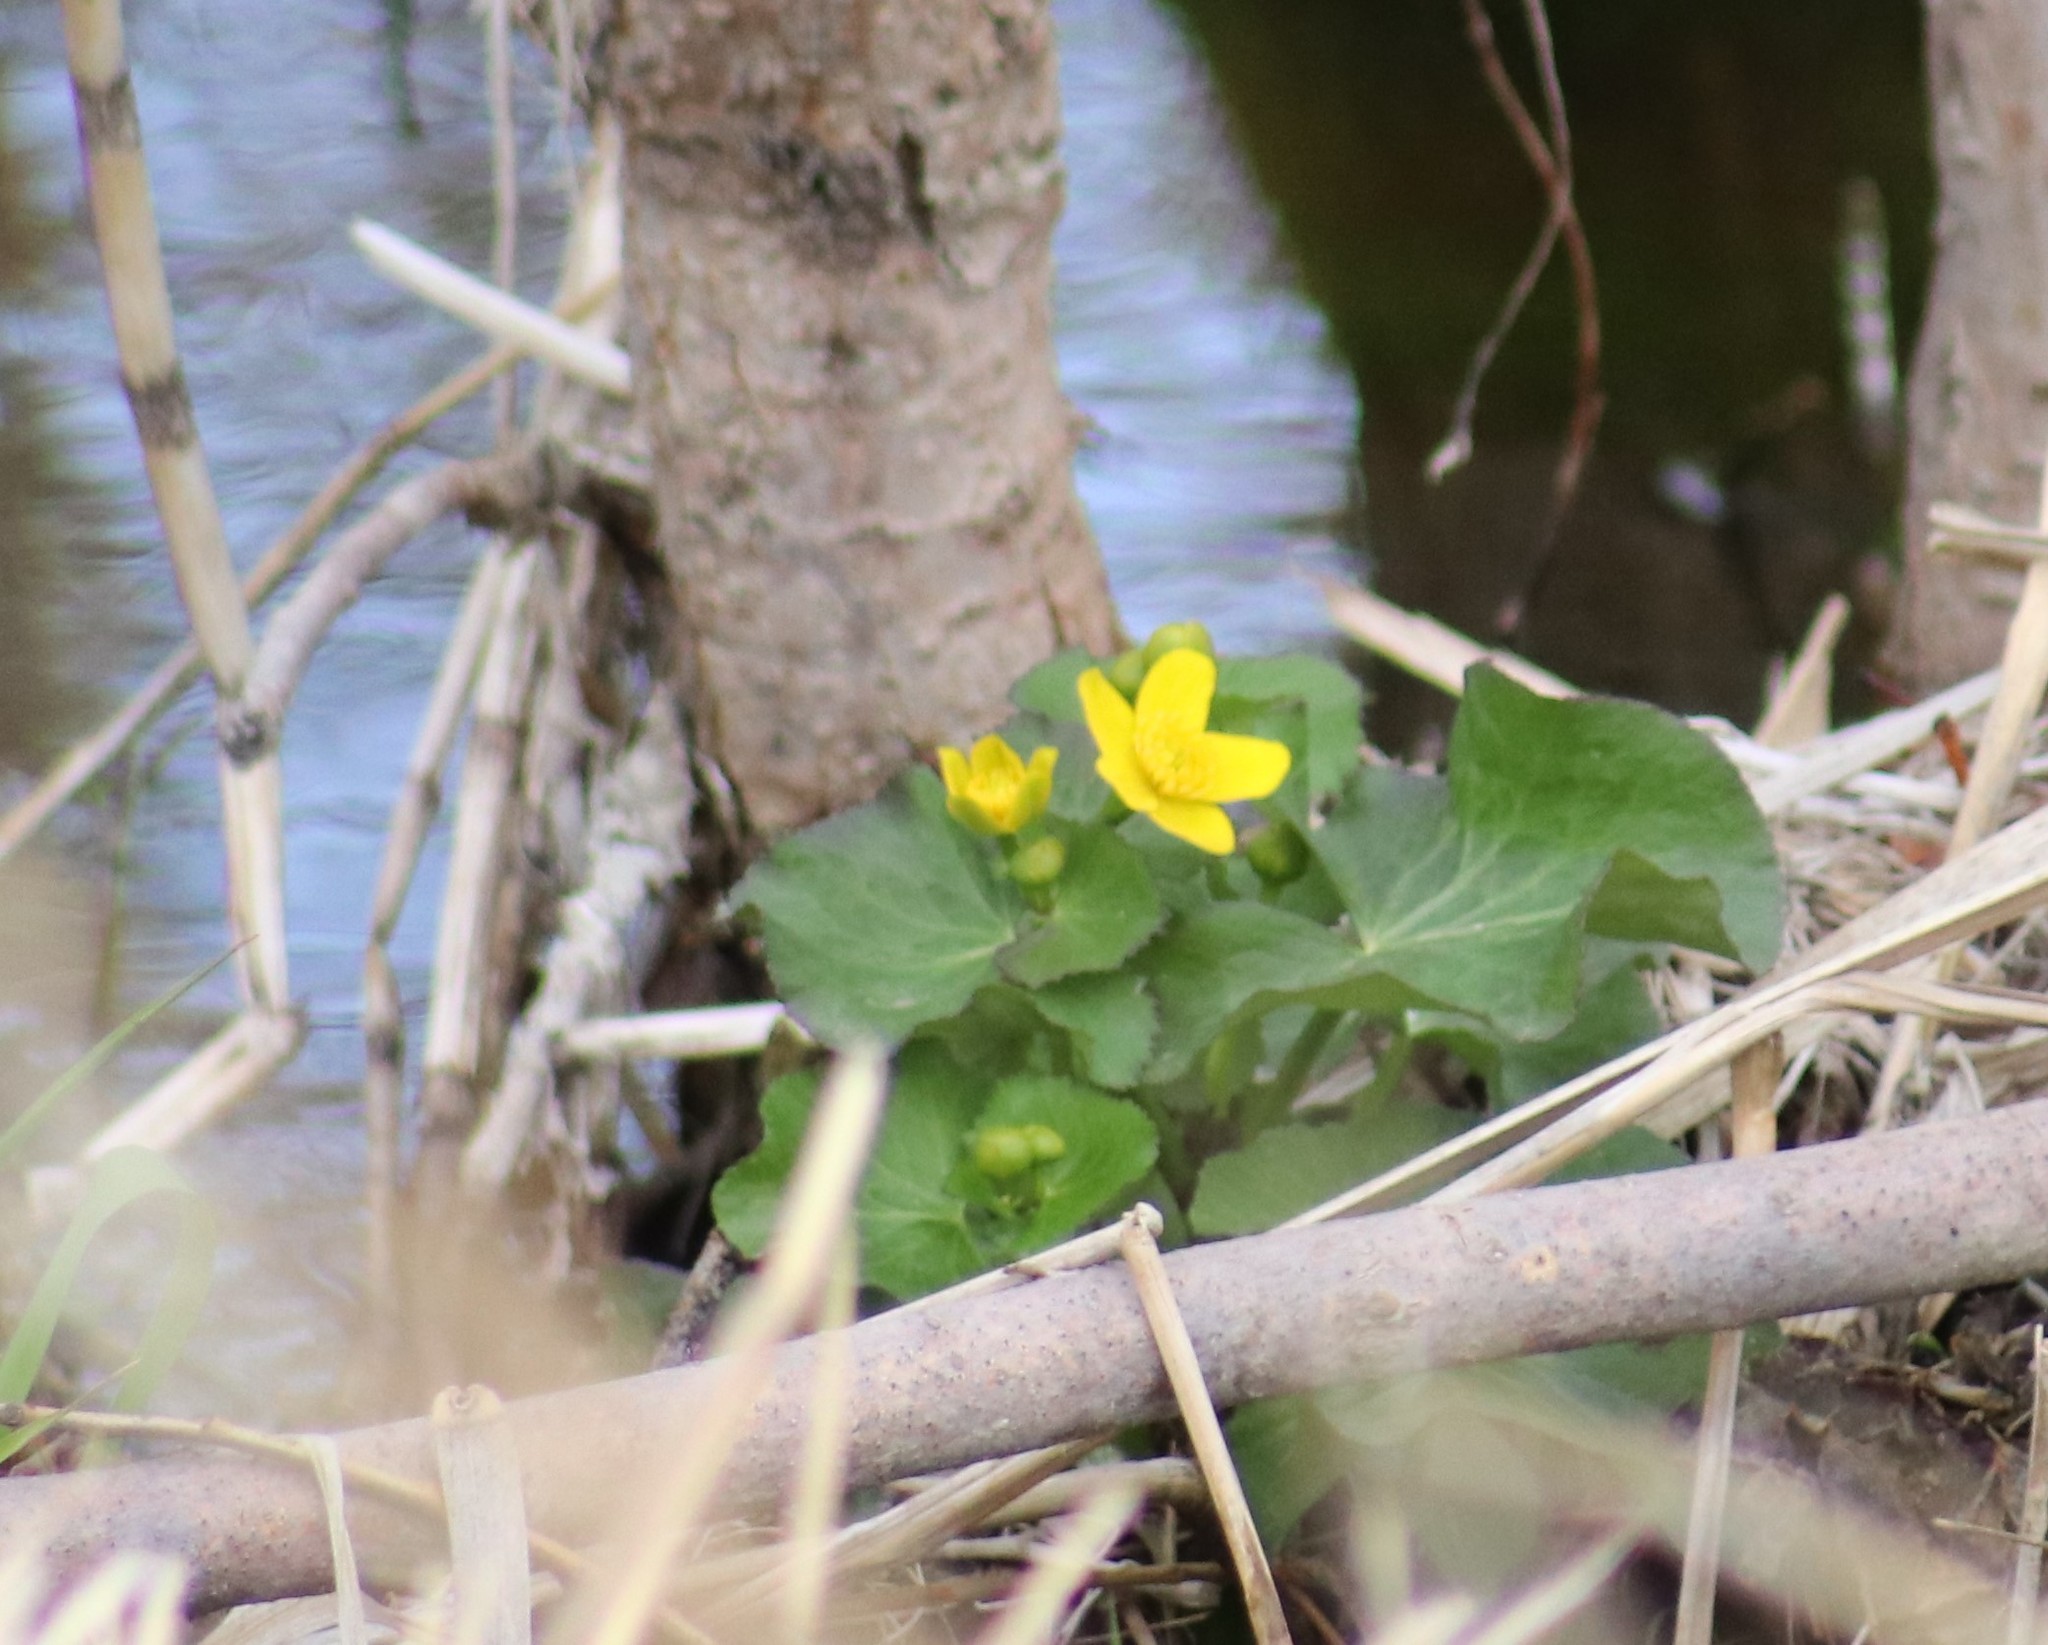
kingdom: Plantae
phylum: Tracheophyta
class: Magnoliopsida
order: Ranunculales
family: Ranunculaceae
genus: Caltha
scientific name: Caltha palustris
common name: Marsh marigold
